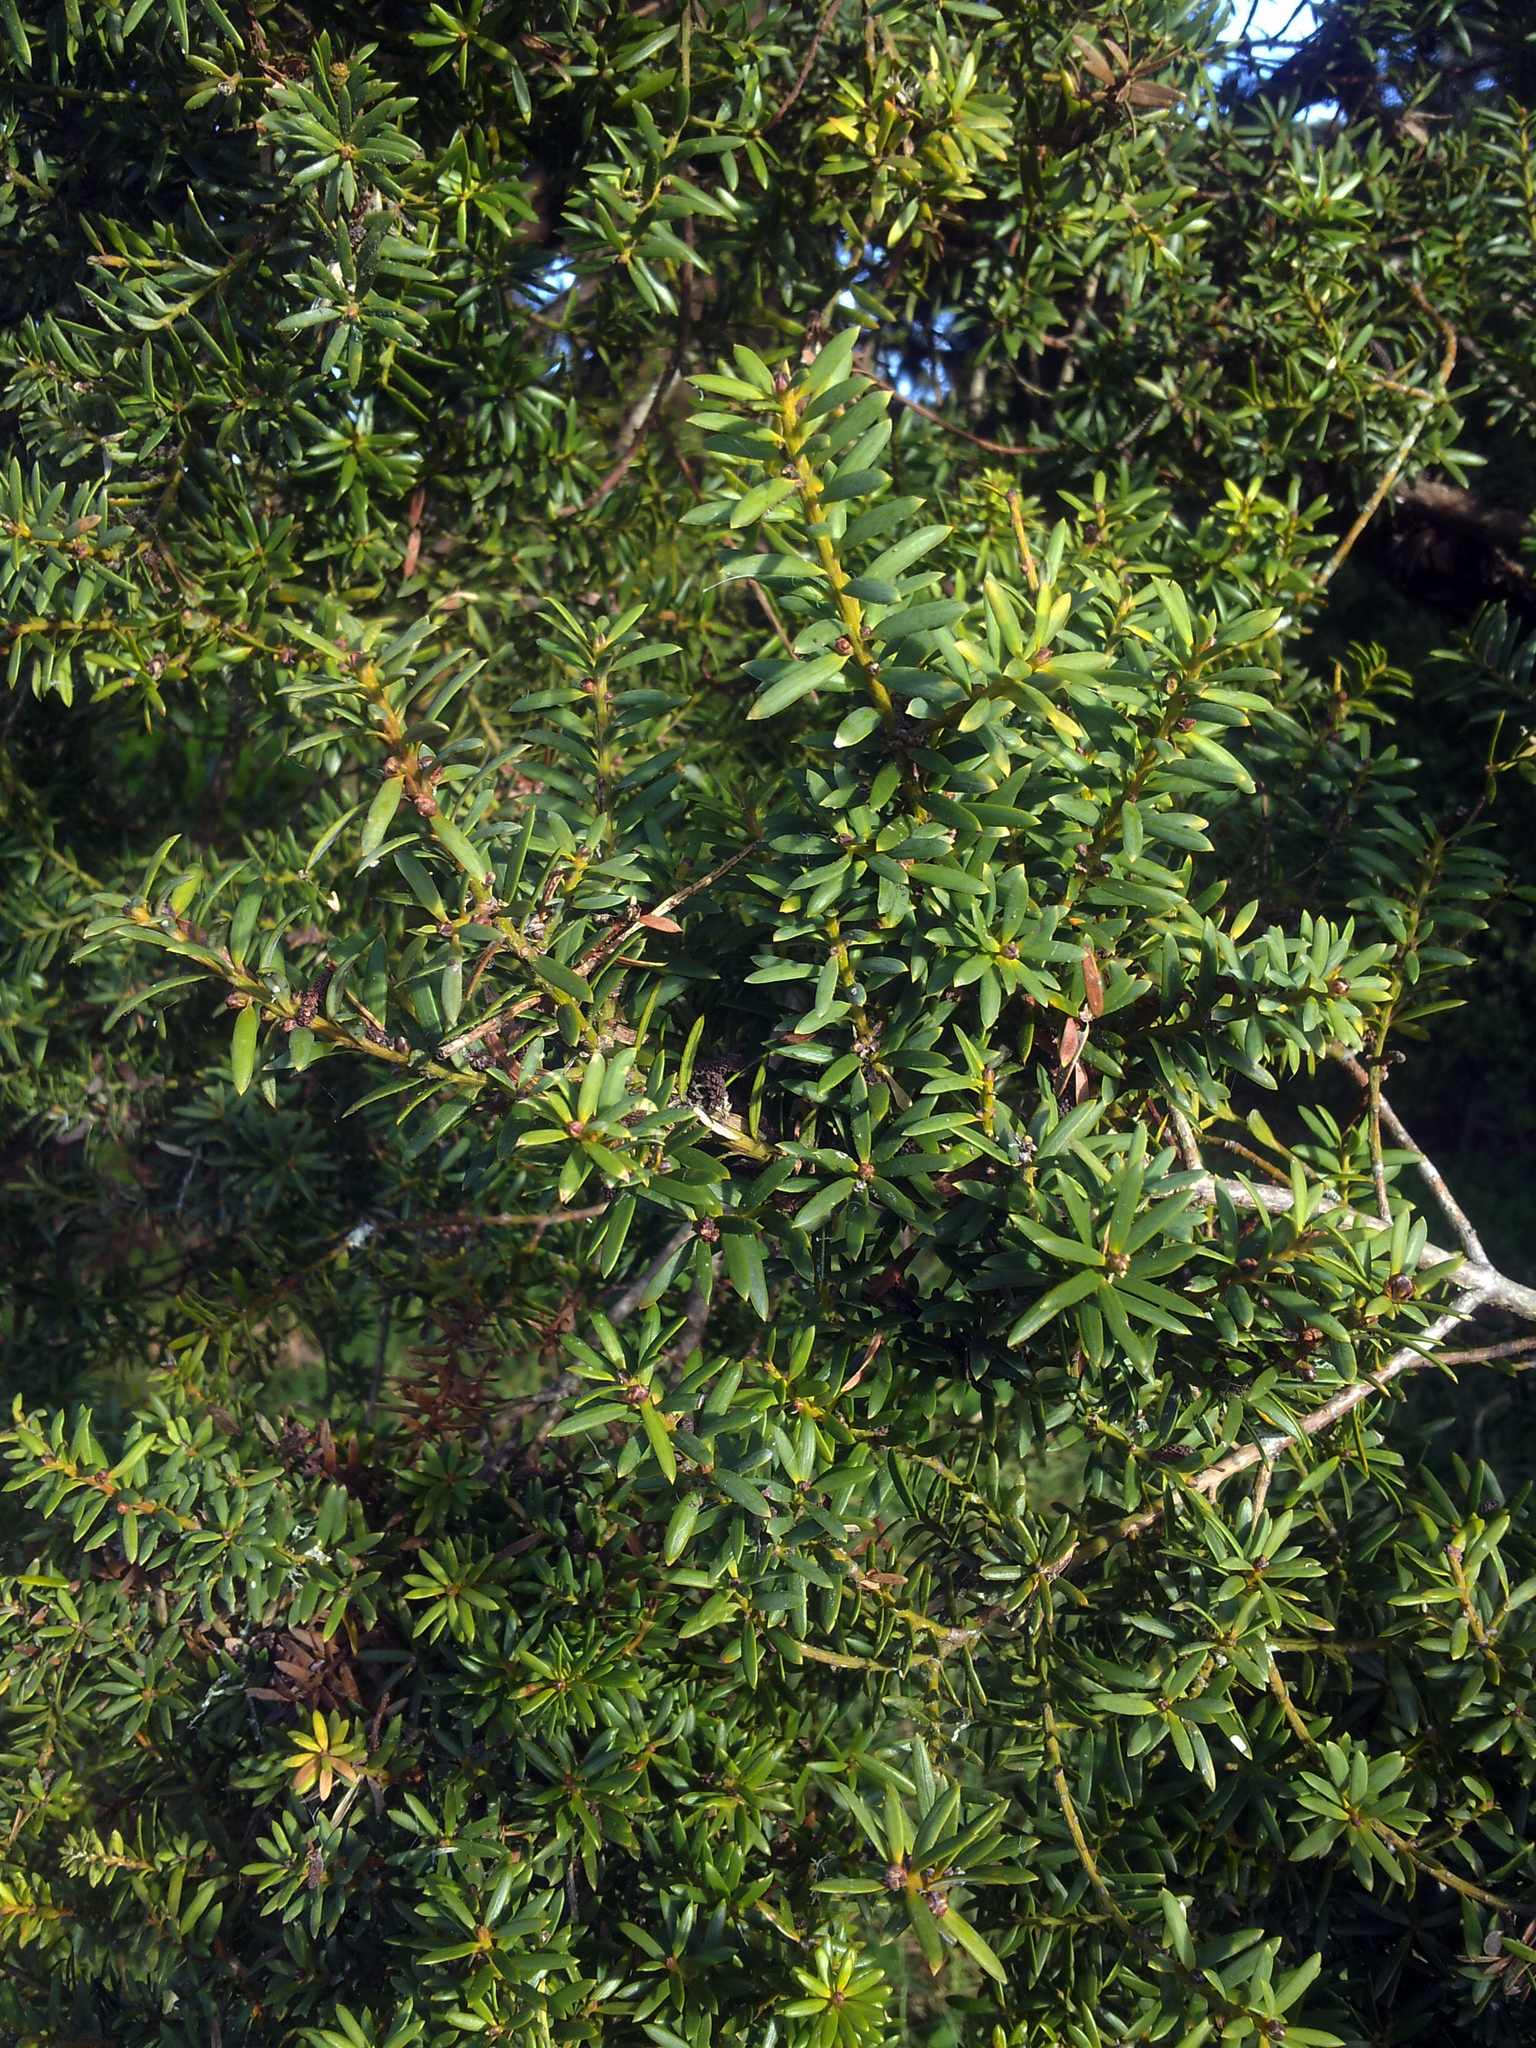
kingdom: Plantae
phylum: Tracheophyta
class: Pinopsida
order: Pinales
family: Podocarpaceae
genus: Podocarpus
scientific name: Podocarpus totara
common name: Totara
